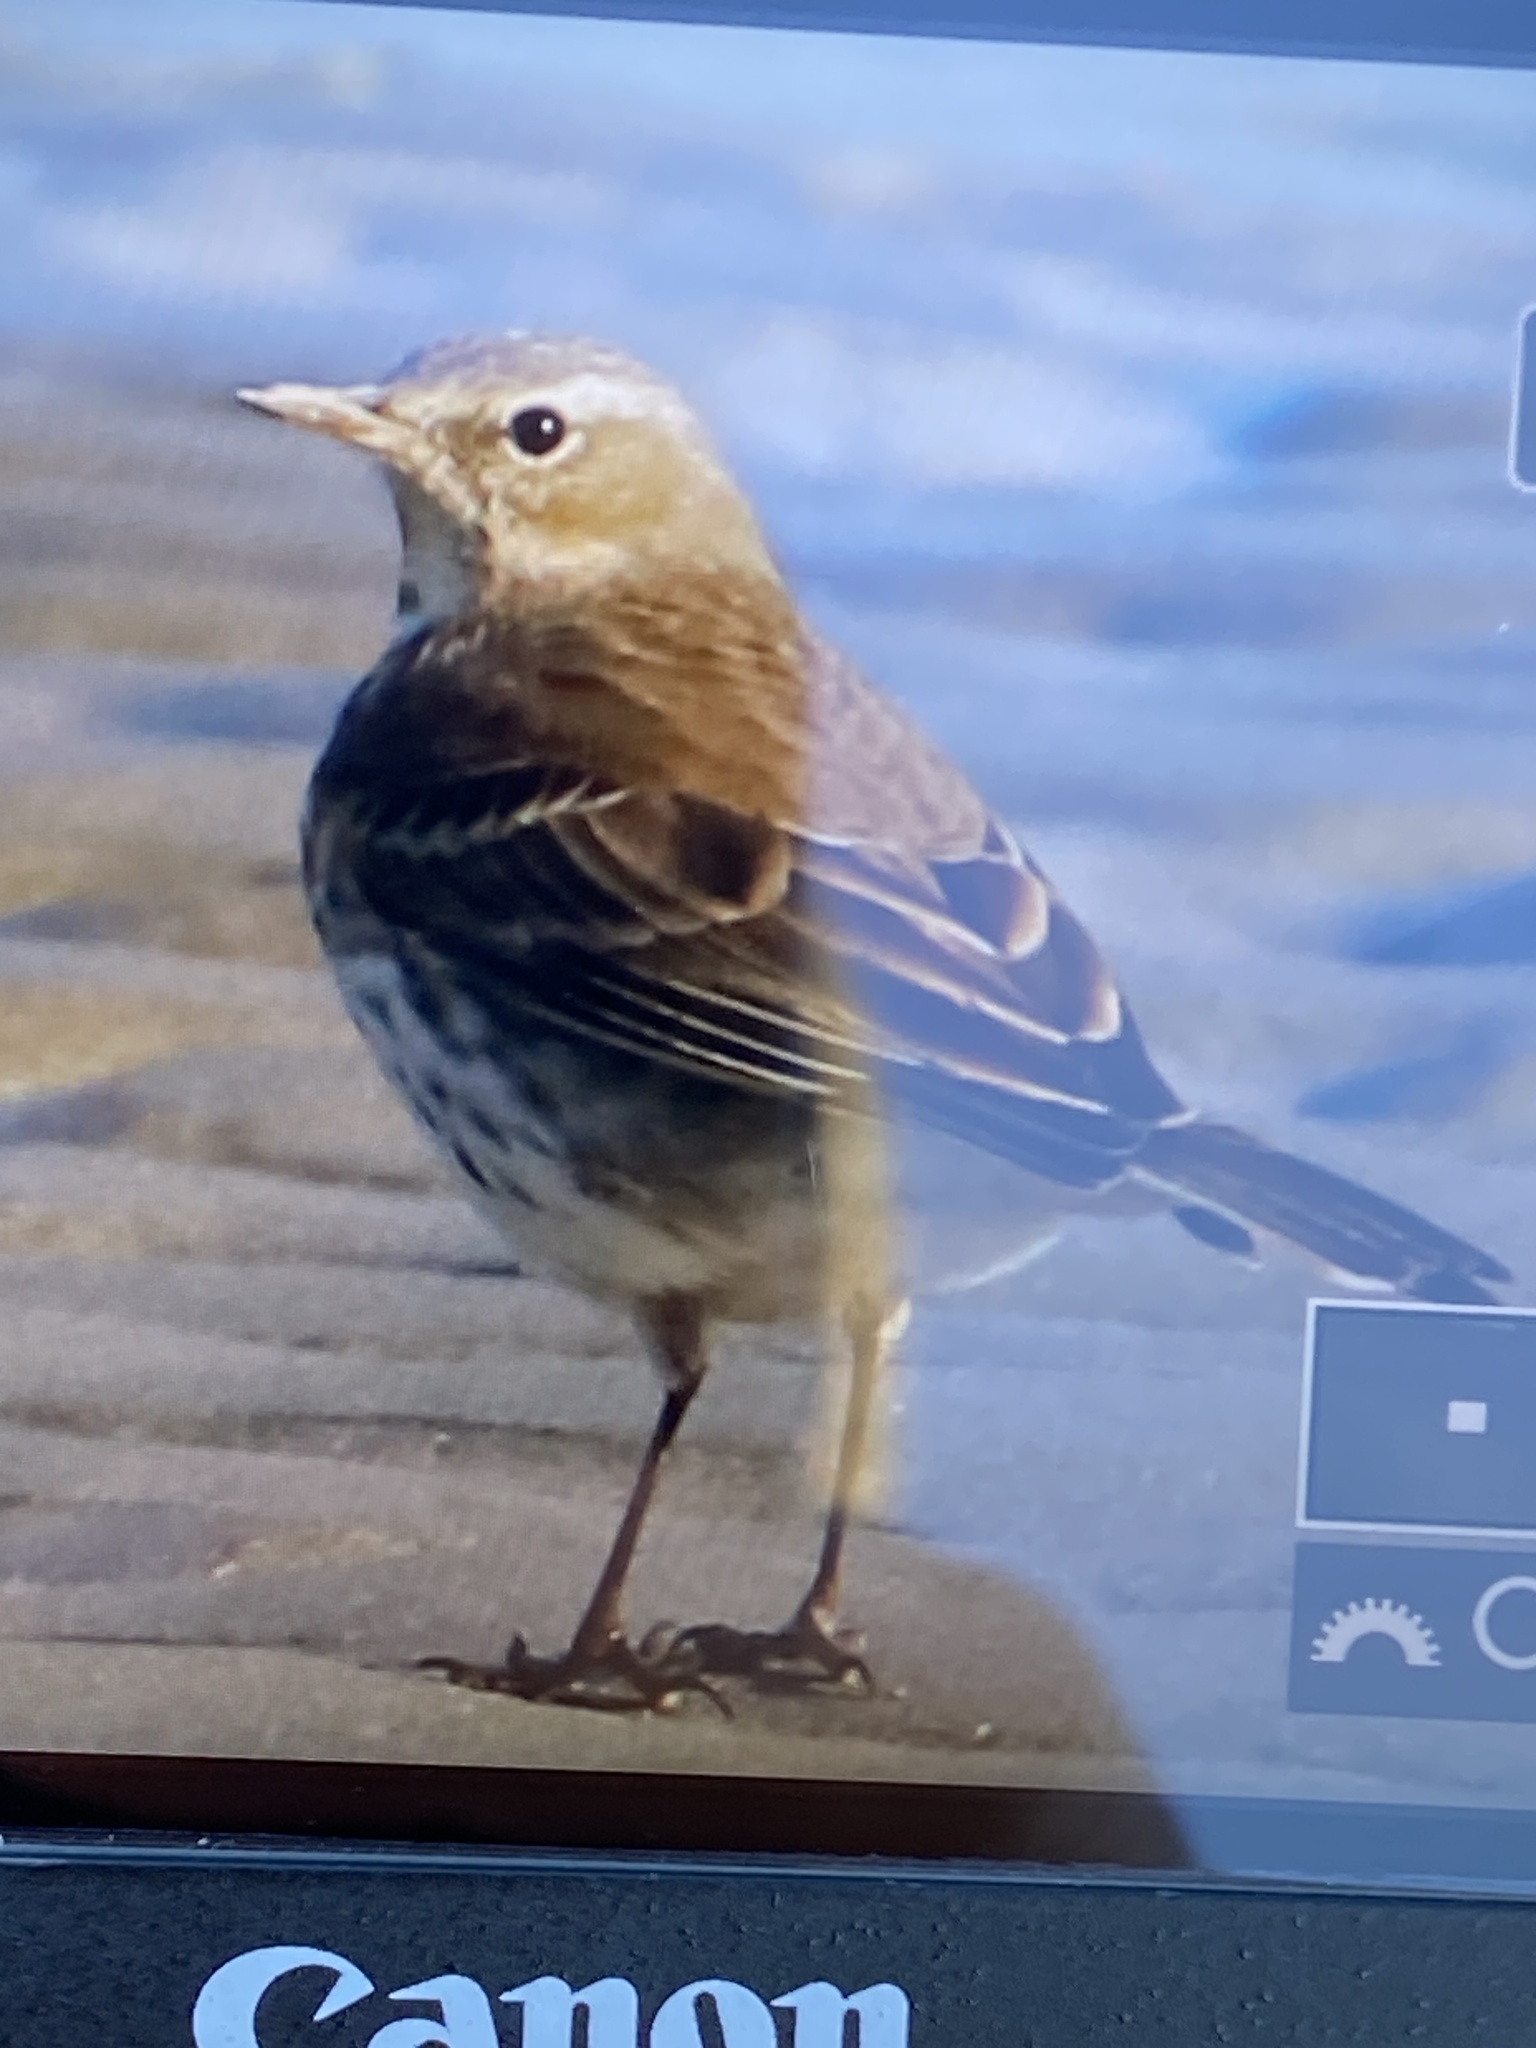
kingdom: Animalia
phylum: Chordata
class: Aves
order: Passeriformes
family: Motacillidae
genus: Anthus
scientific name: Anthus spinoletta
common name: Water pipit
